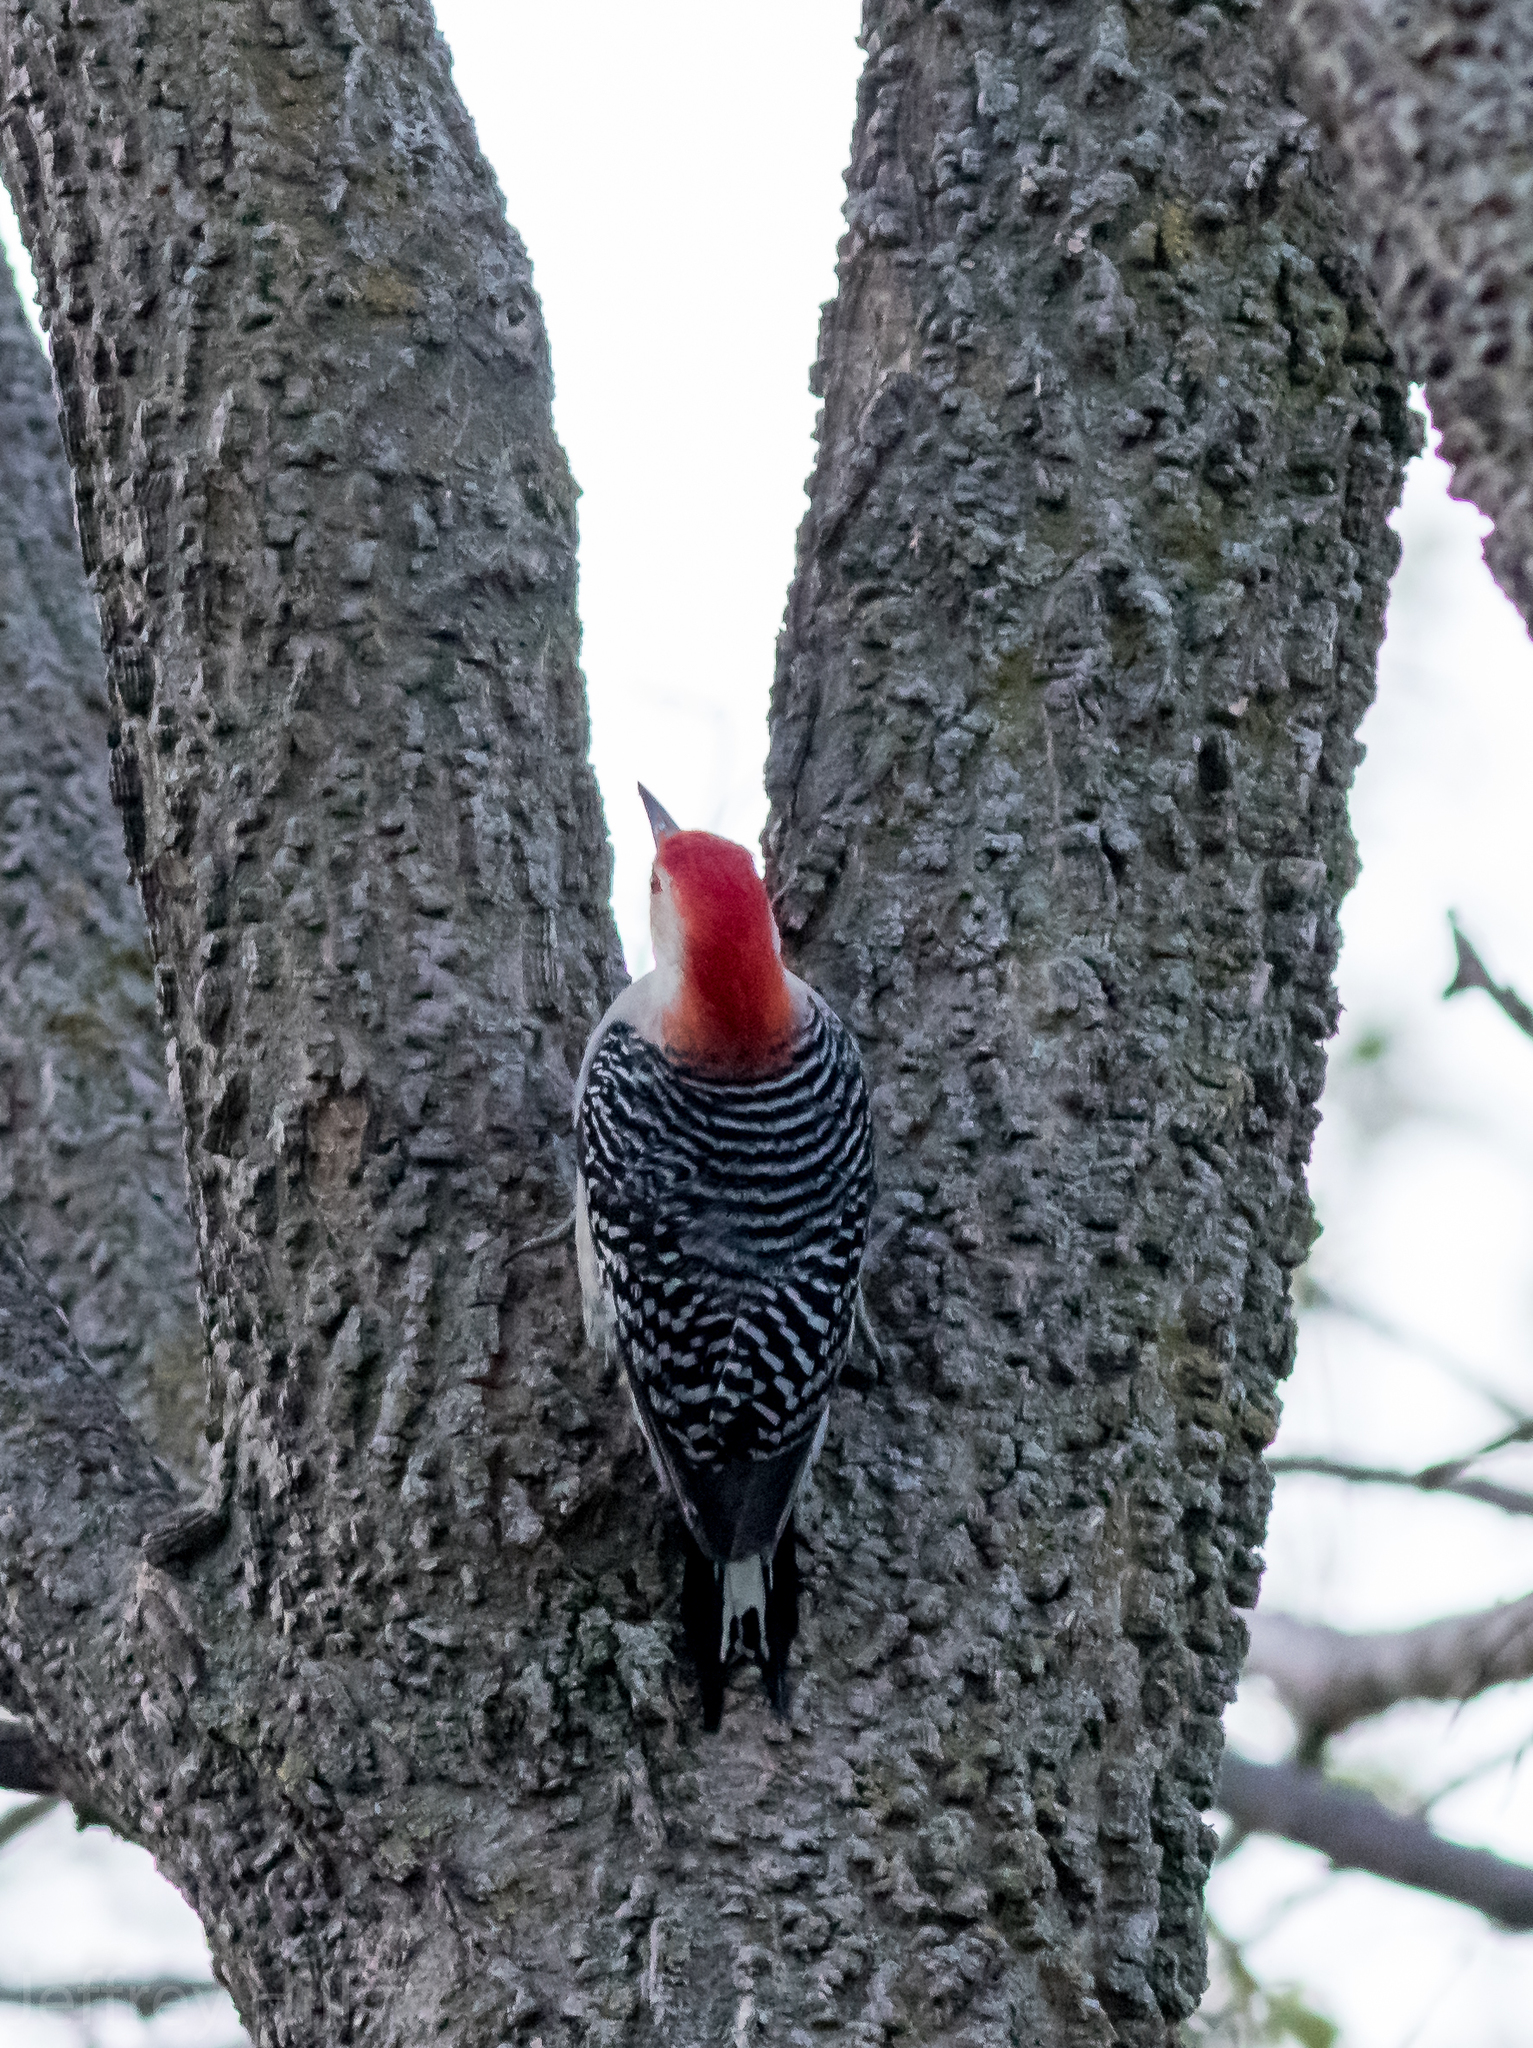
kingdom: Animalia
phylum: Chordata
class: Aves
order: Piciformes
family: Picidae
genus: Melanerpes
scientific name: Melanerpes carolinus
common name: Red-bellied woodpecker
